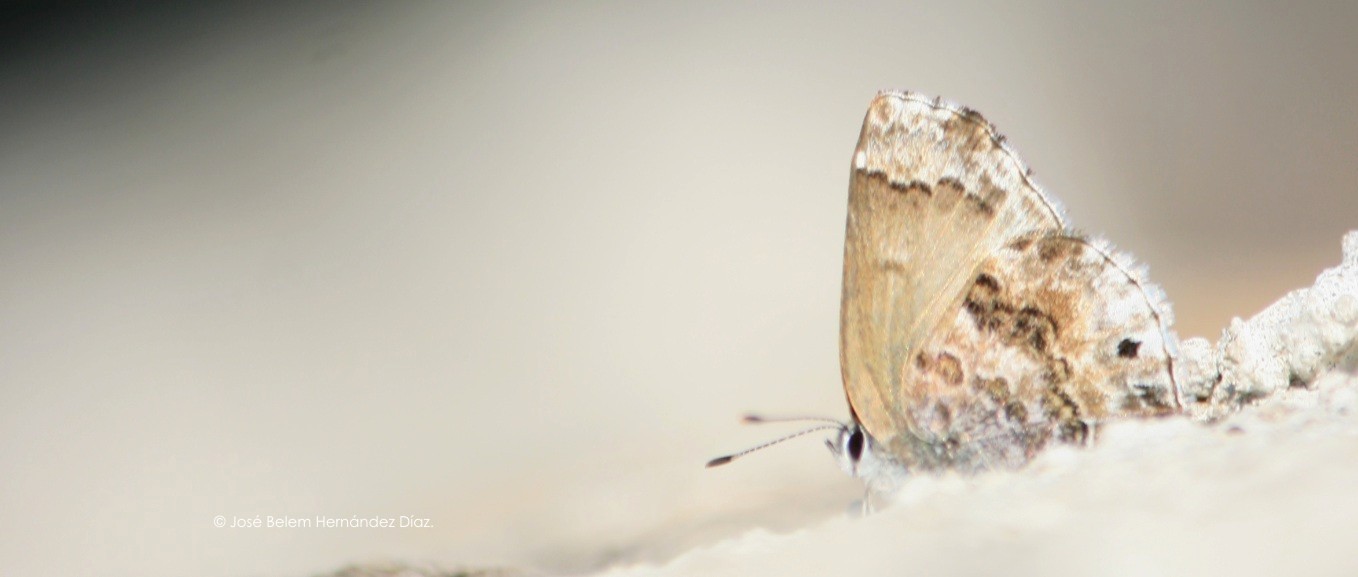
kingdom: Animalia
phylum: Arthropoda
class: Insecta
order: Lepidoptera
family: Lycaenidae
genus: Thecla
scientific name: Thecla cestri
